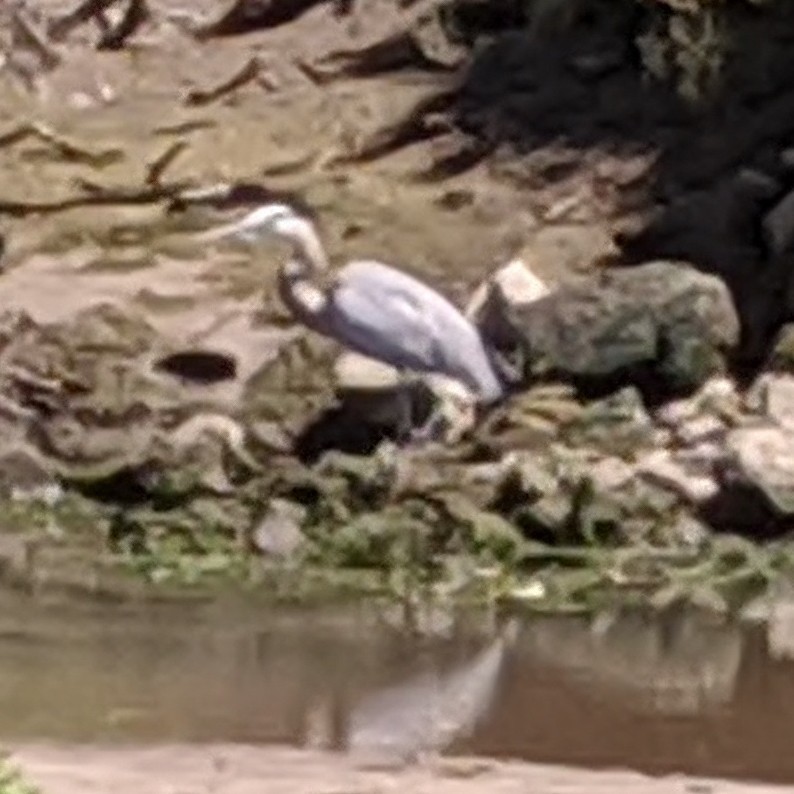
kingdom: Animalia
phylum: Chordata
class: Aves
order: Pelecaniformes
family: Ardeidae
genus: Ardea
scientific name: Ardea herodias
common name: Great blue heron
